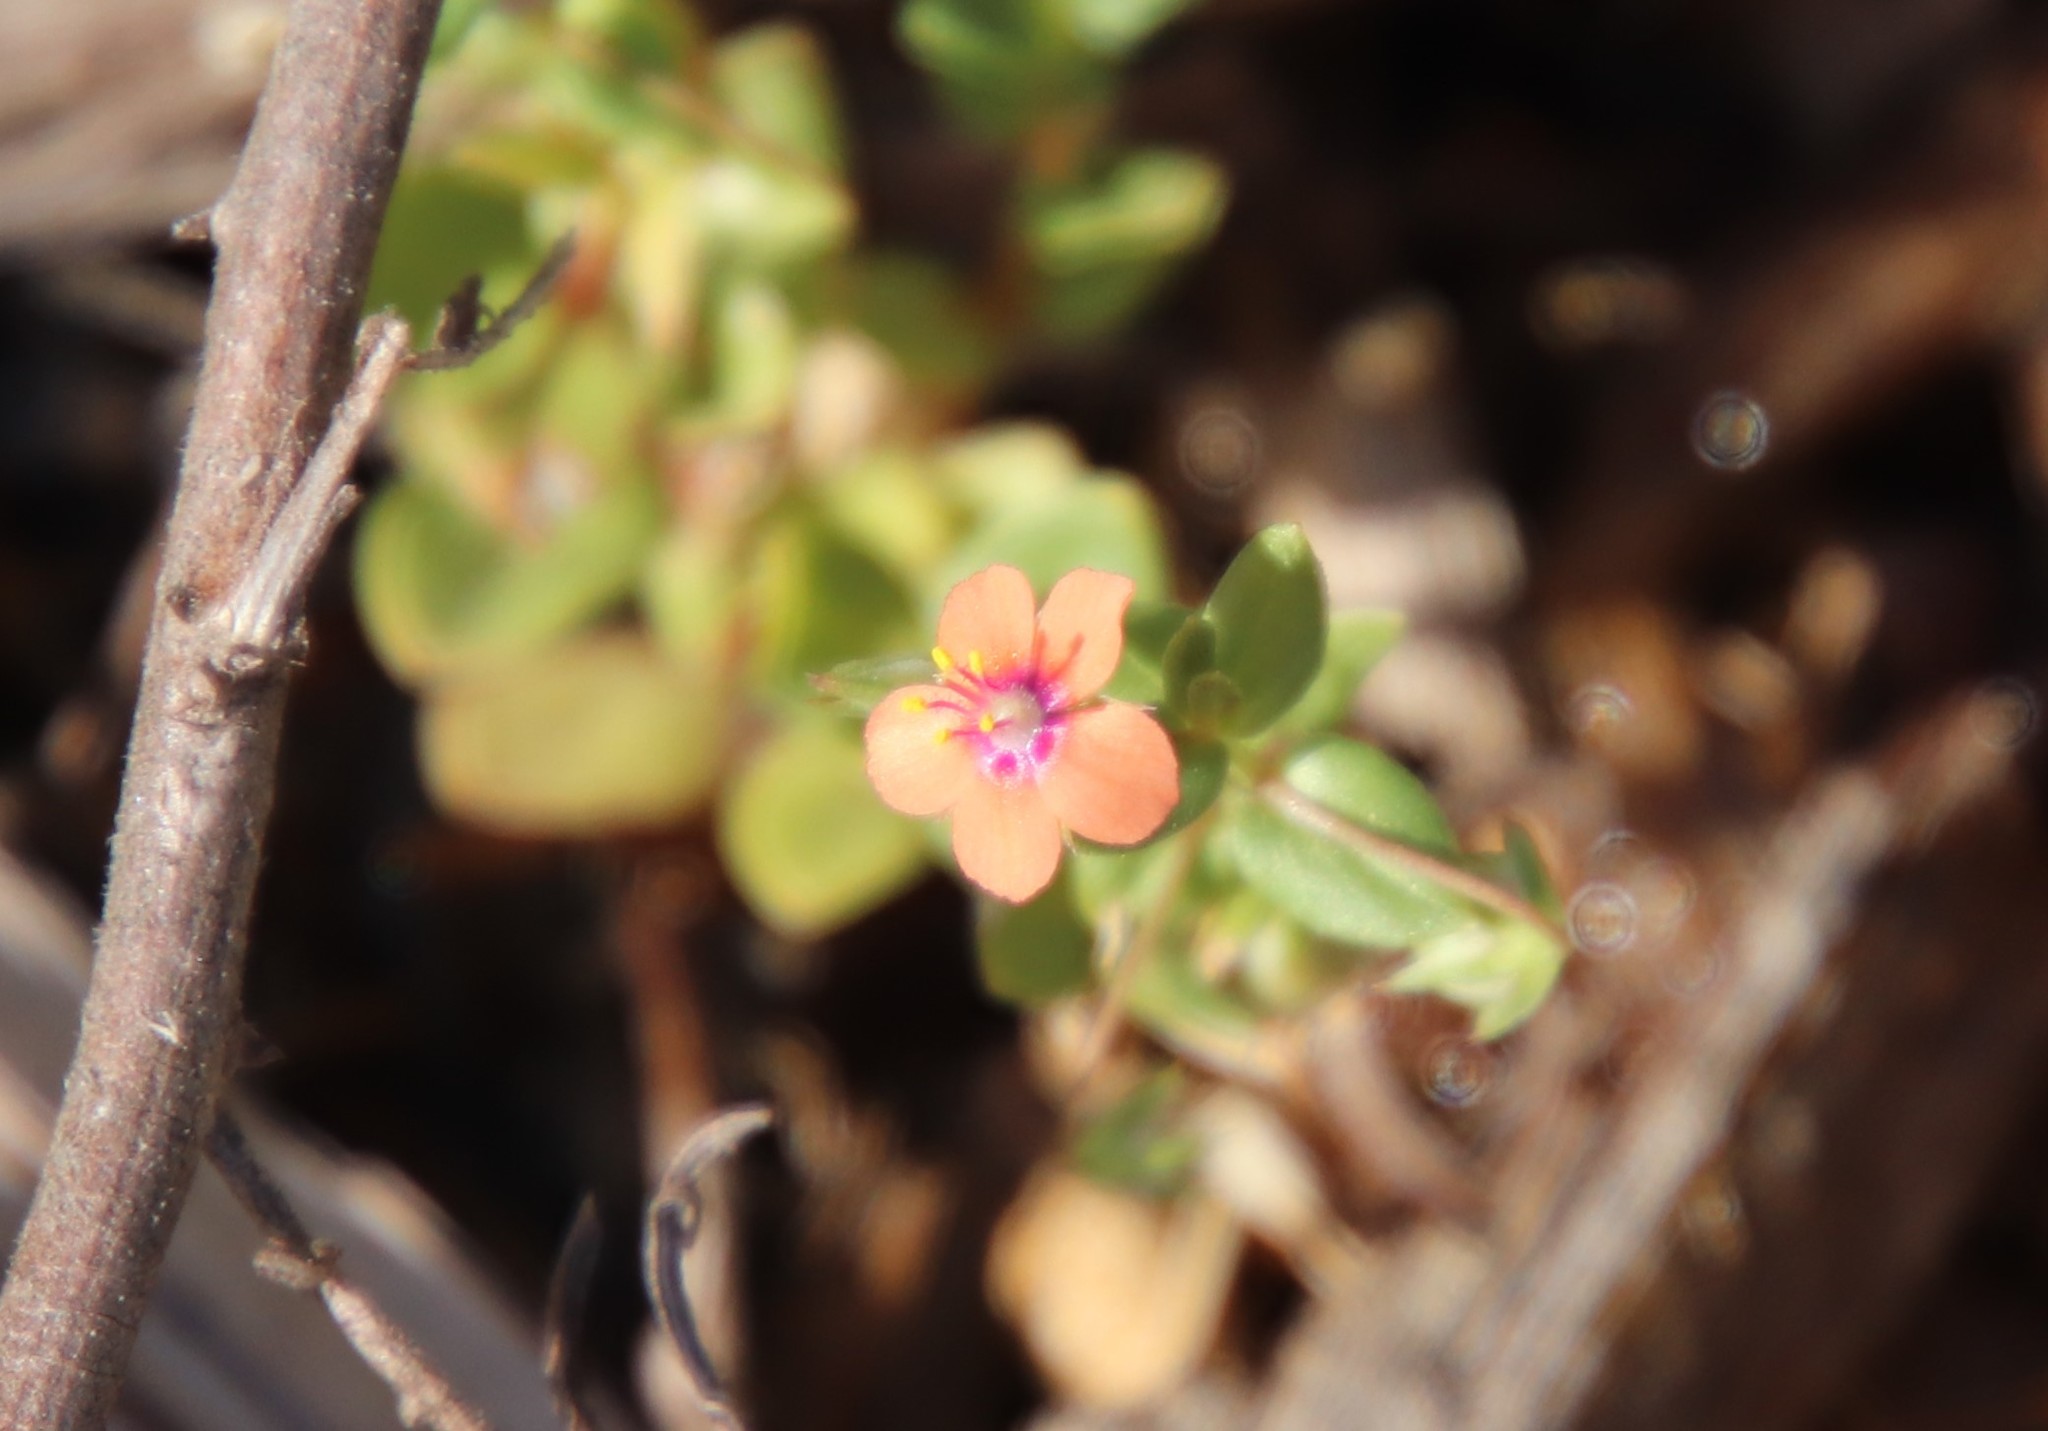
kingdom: Plantae
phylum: Tracheophyta
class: Magnoliopsida
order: Ericales
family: Primulaceae
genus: Lysimachia
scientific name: Lysimachia arvensis
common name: Scarlet pimpernel
